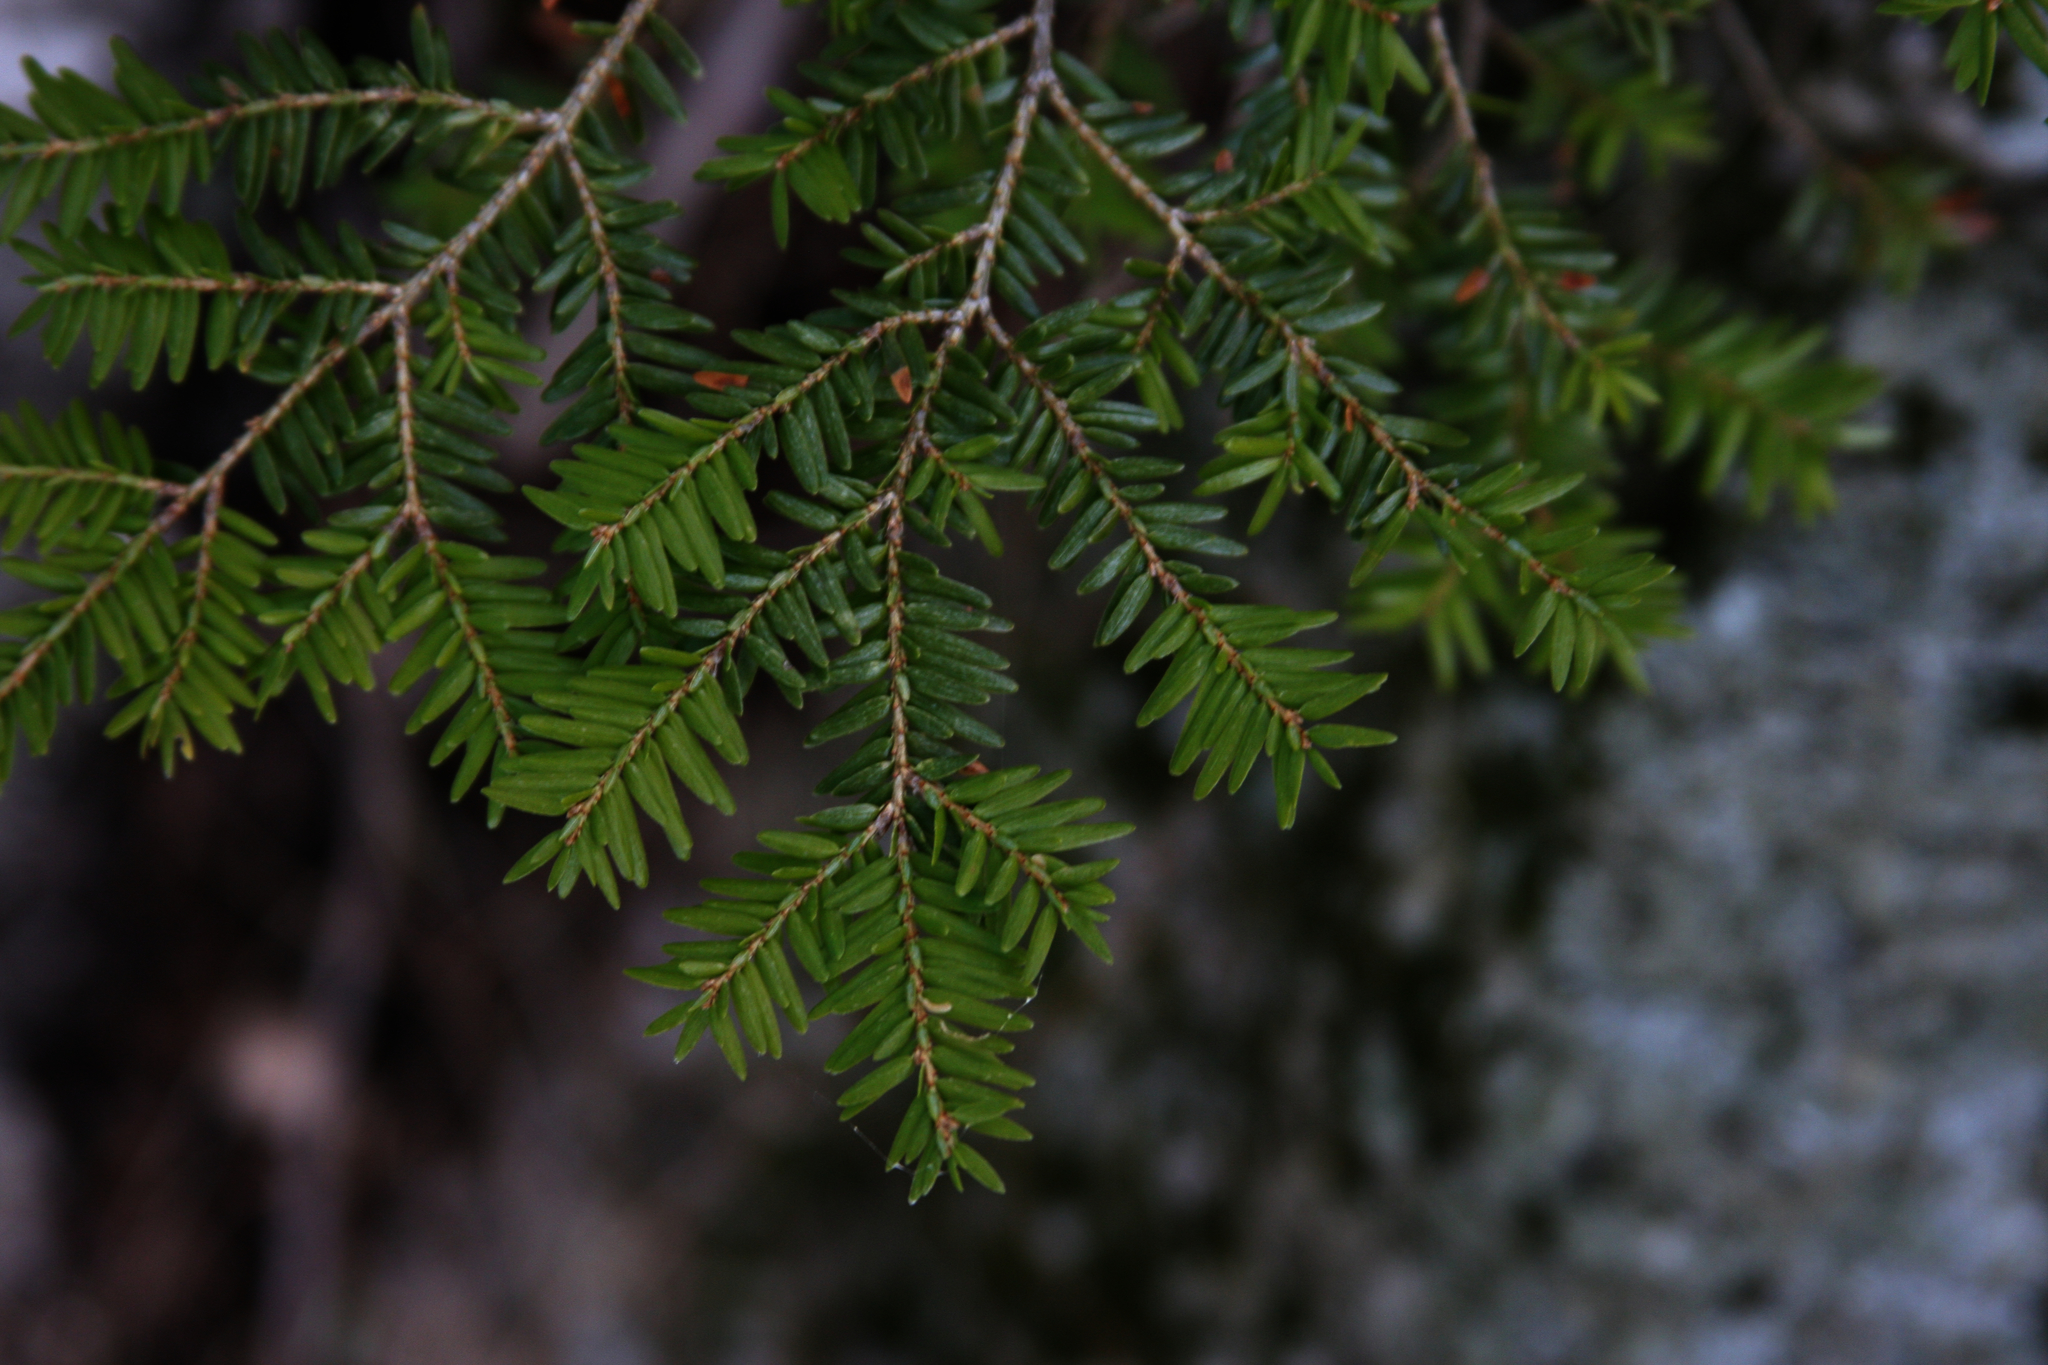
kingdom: Plantae
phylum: Tracheophyta
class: Pinopsida
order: Pinales
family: Pinaceae
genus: Tsuga
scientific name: Tsuga canadensis
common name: Eastern hemlock
